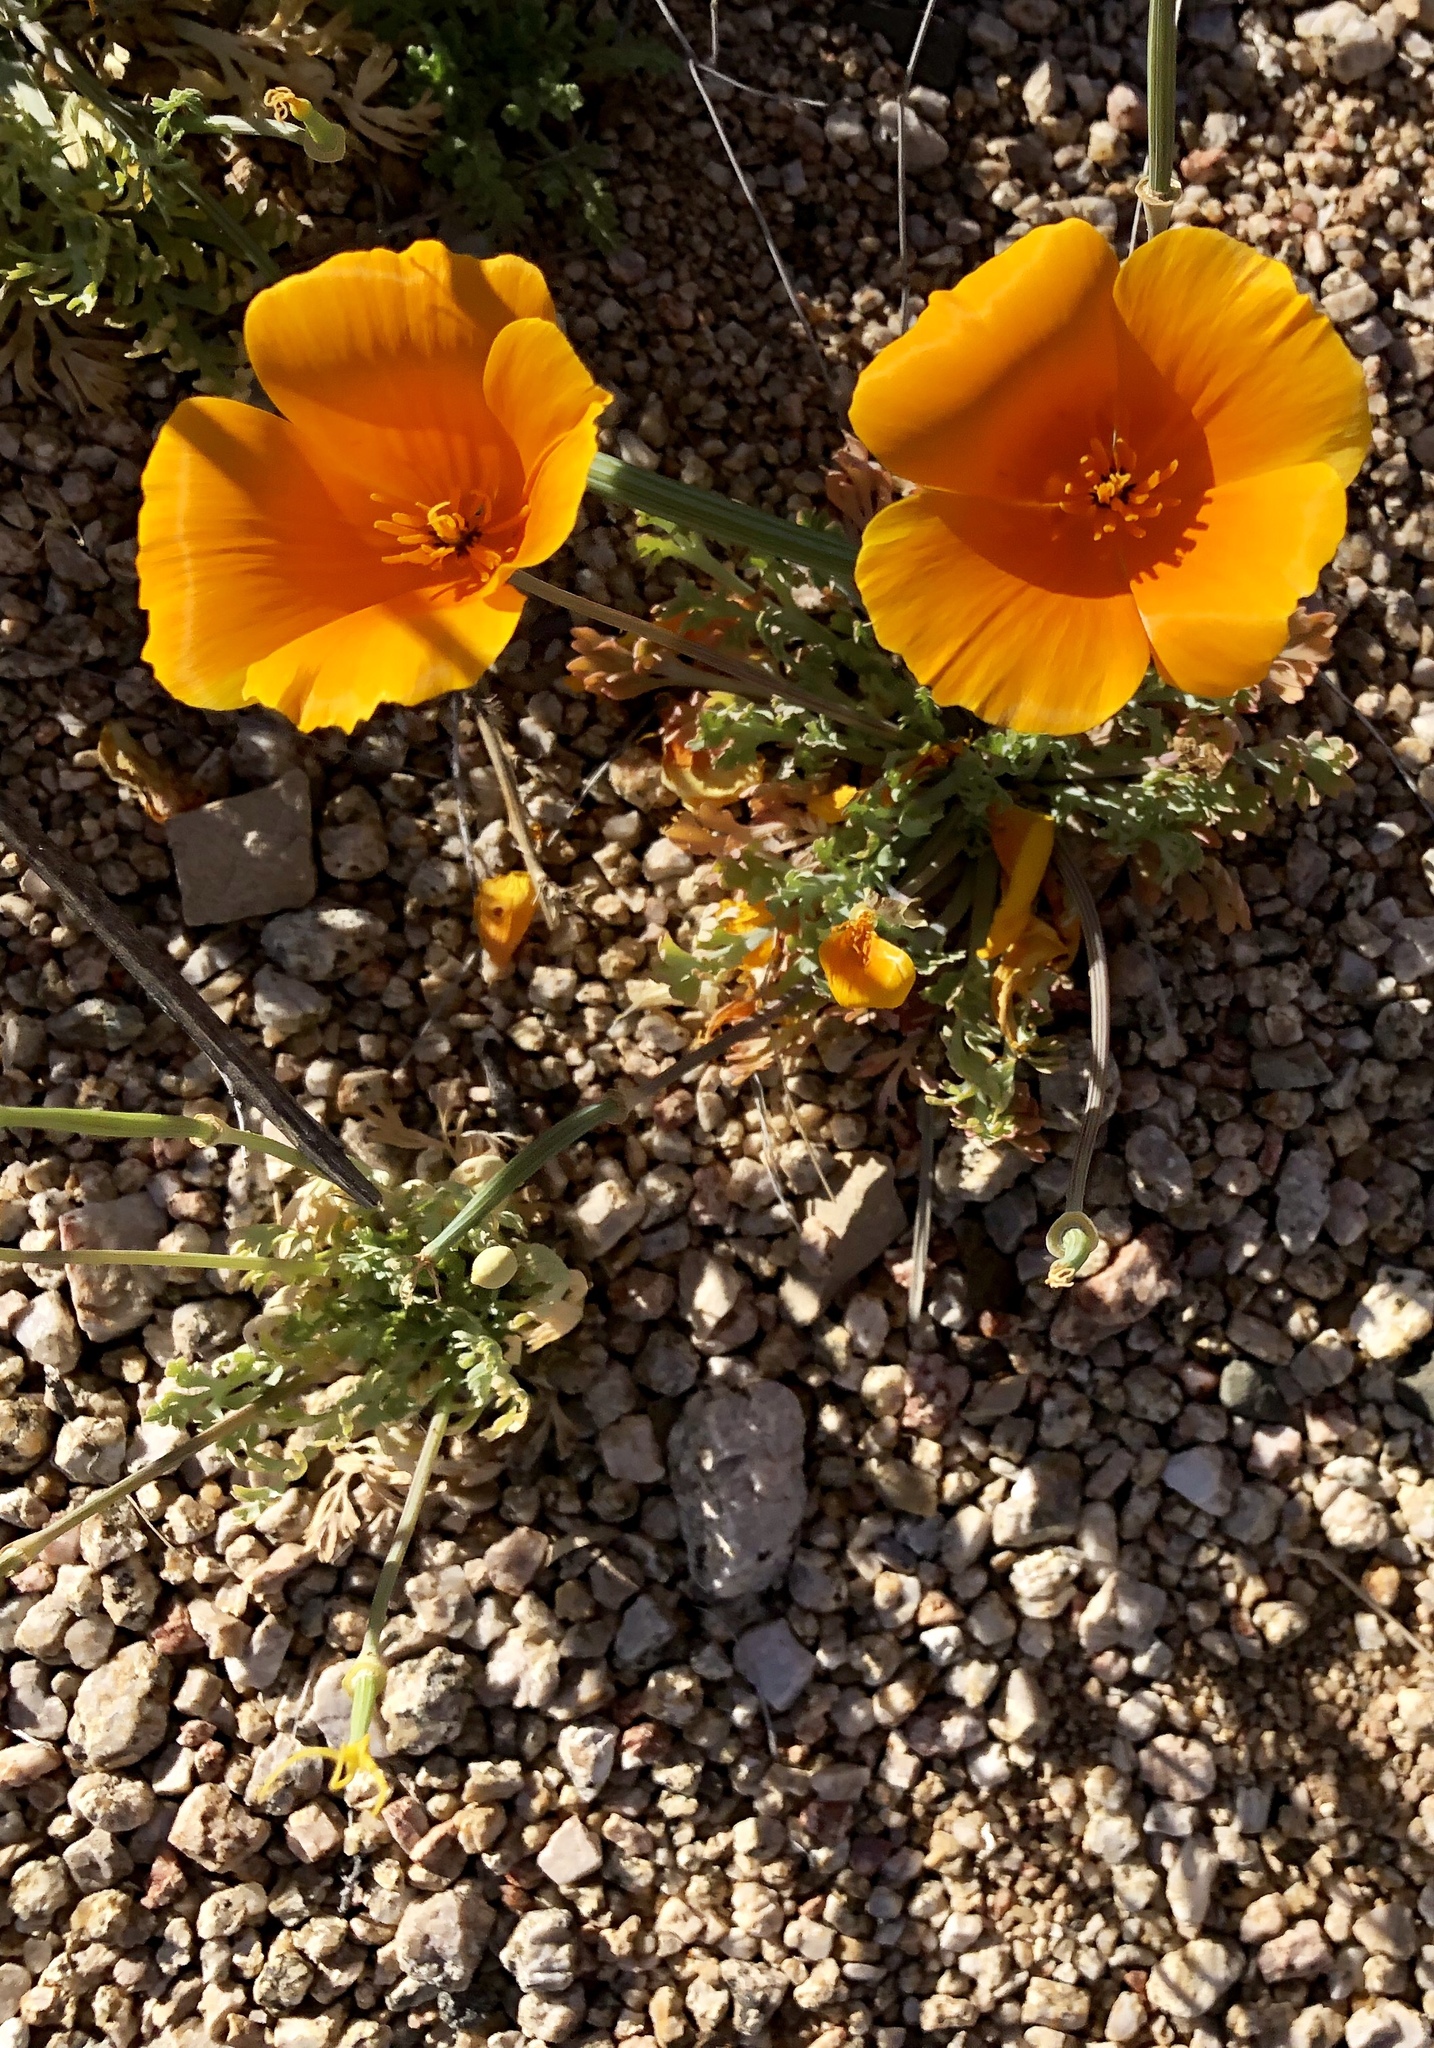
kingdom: Plantae
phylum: Tracheophyta
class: Magnoliopsida
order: Ranunculales
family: Papaveraceae
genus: Eschscholzia
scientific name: Eschscholzia californica
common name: California poppy
